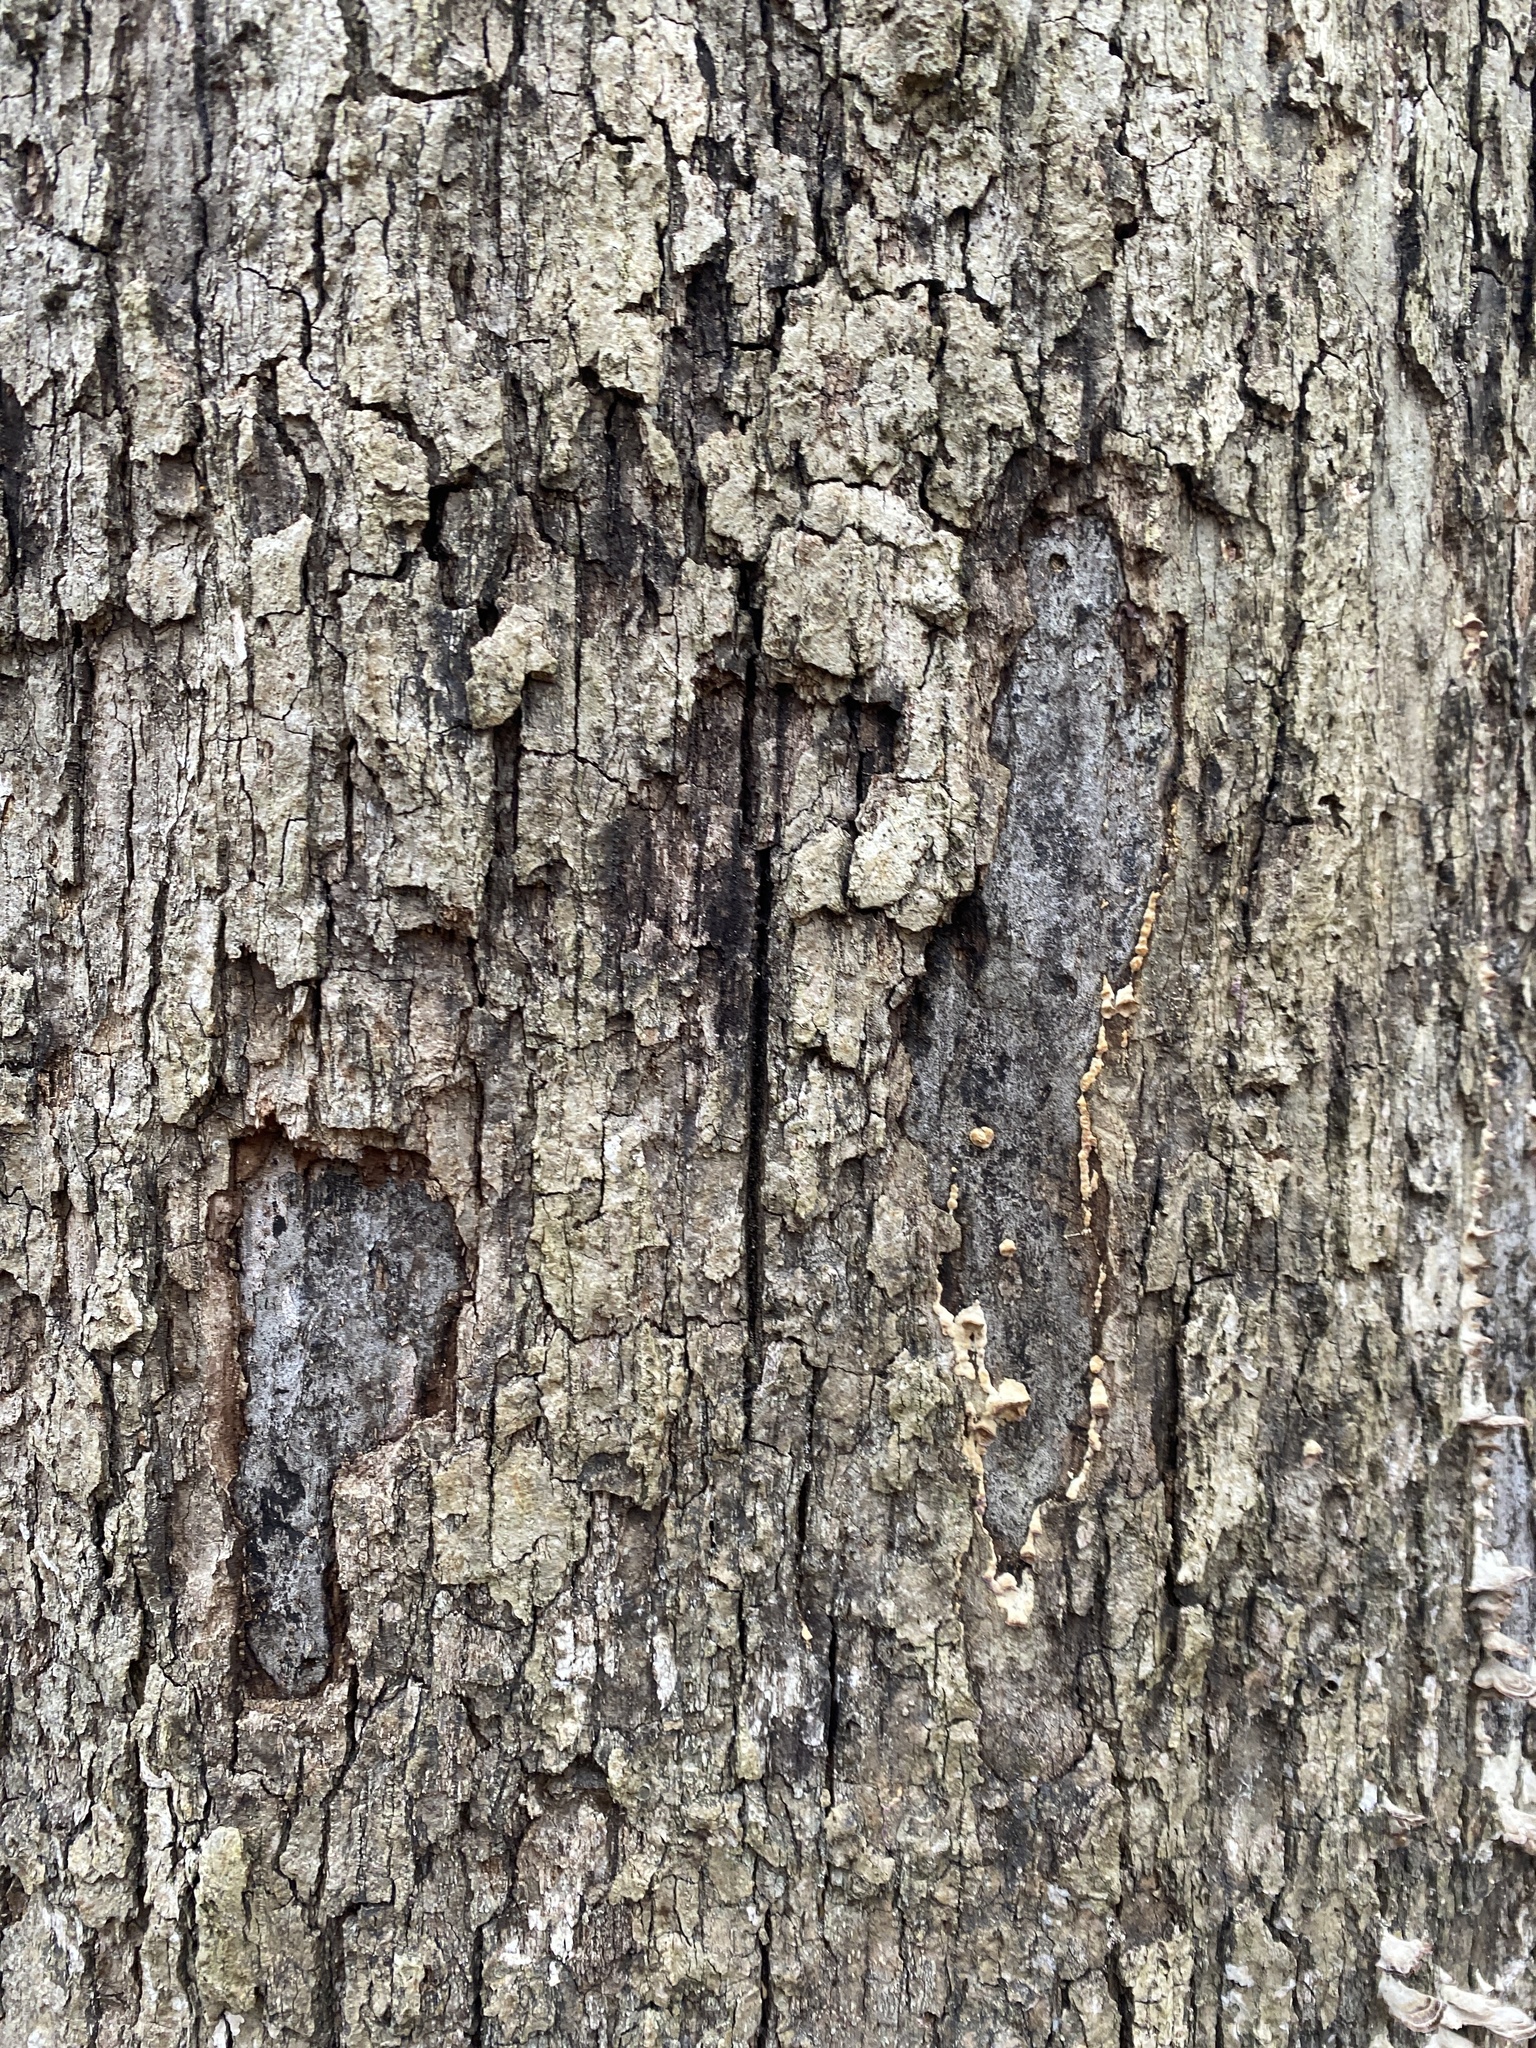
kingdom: Fungi
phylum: Ascomycota
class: Sordariomycetes
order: Xylariales
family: Graphostromataceae
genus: Biscogniauxia
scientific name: Biscogniauxia atropunctata
